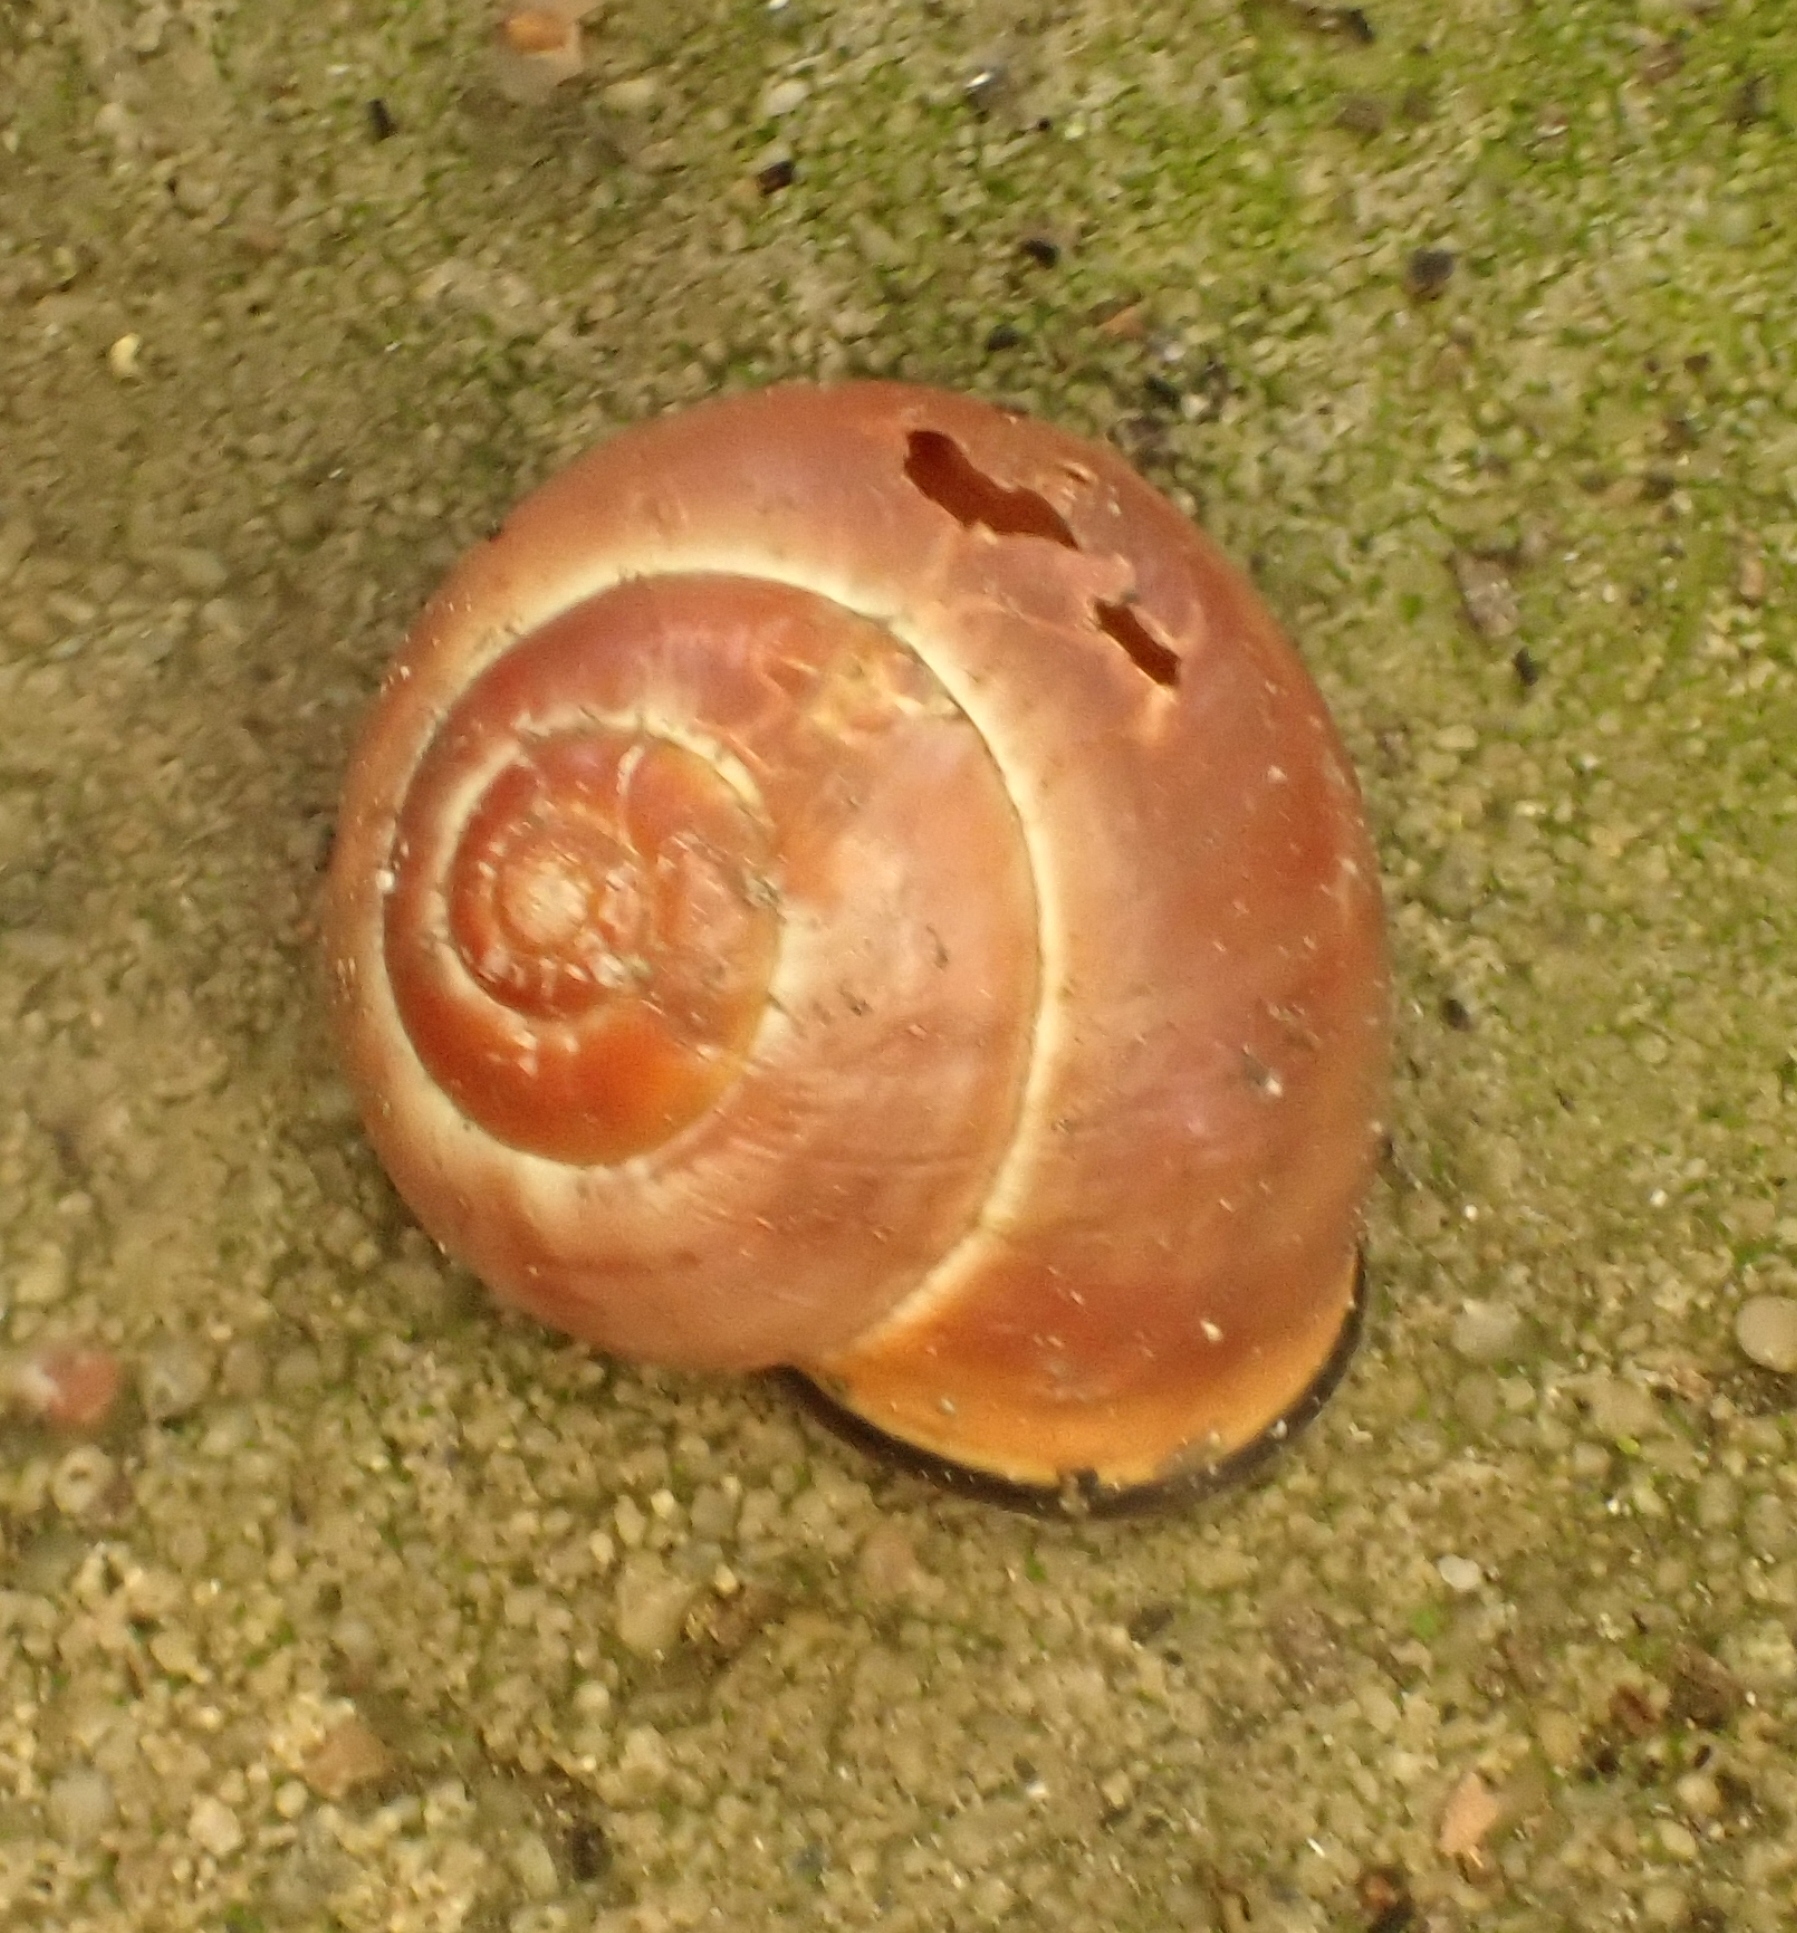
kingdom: Animalia
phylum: Mollusca
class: Gastropoda
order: Stylommatophora
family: Helicidae
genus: Cepaea
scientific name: Cepaea nemoralis
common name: Grovesnail
